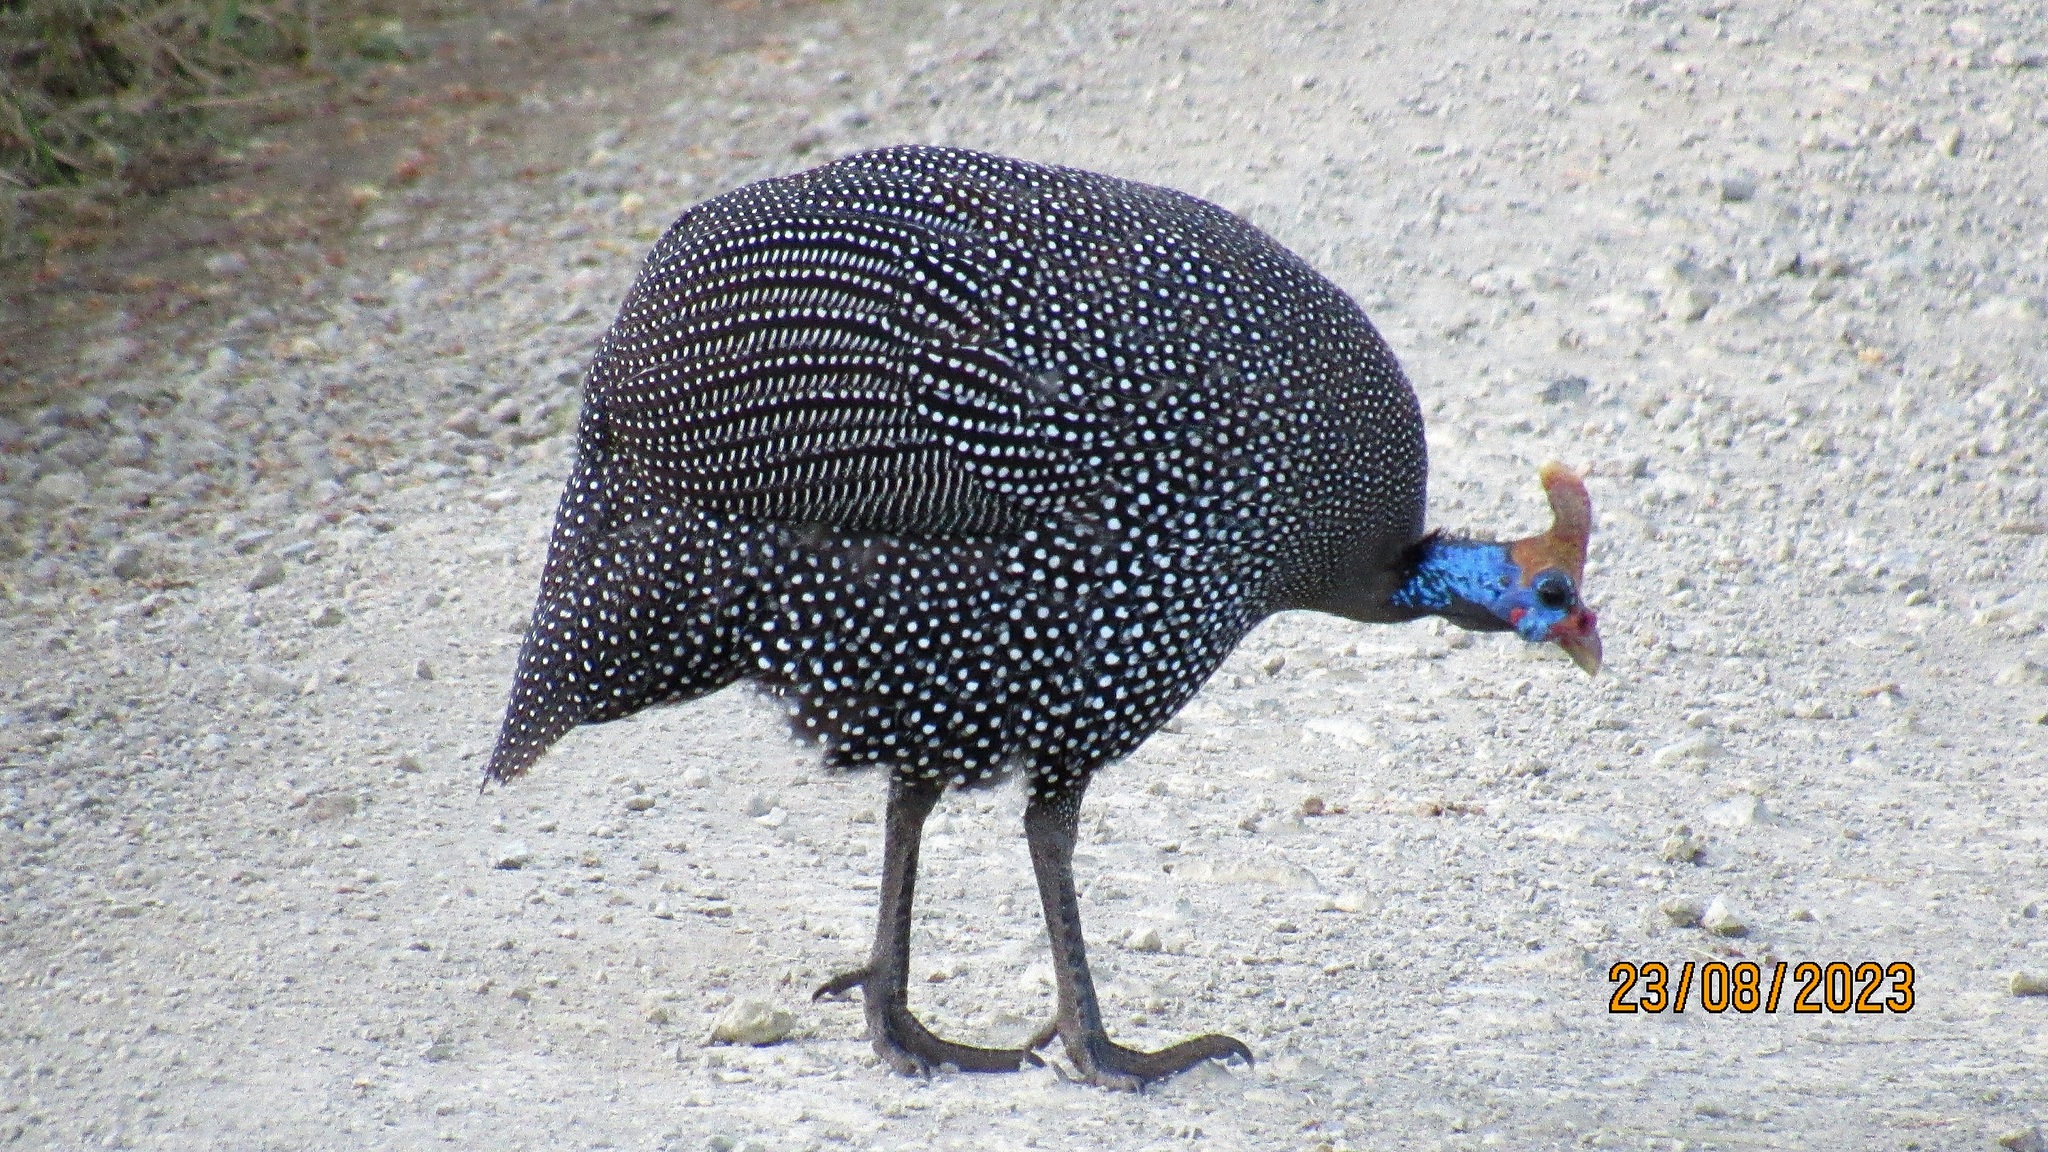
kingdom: Animalia
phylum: Chordata
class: Aves
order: Galliformes
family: Numididae
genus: Numida
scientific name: Numida meleagris
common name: Helmeted guineafowl
